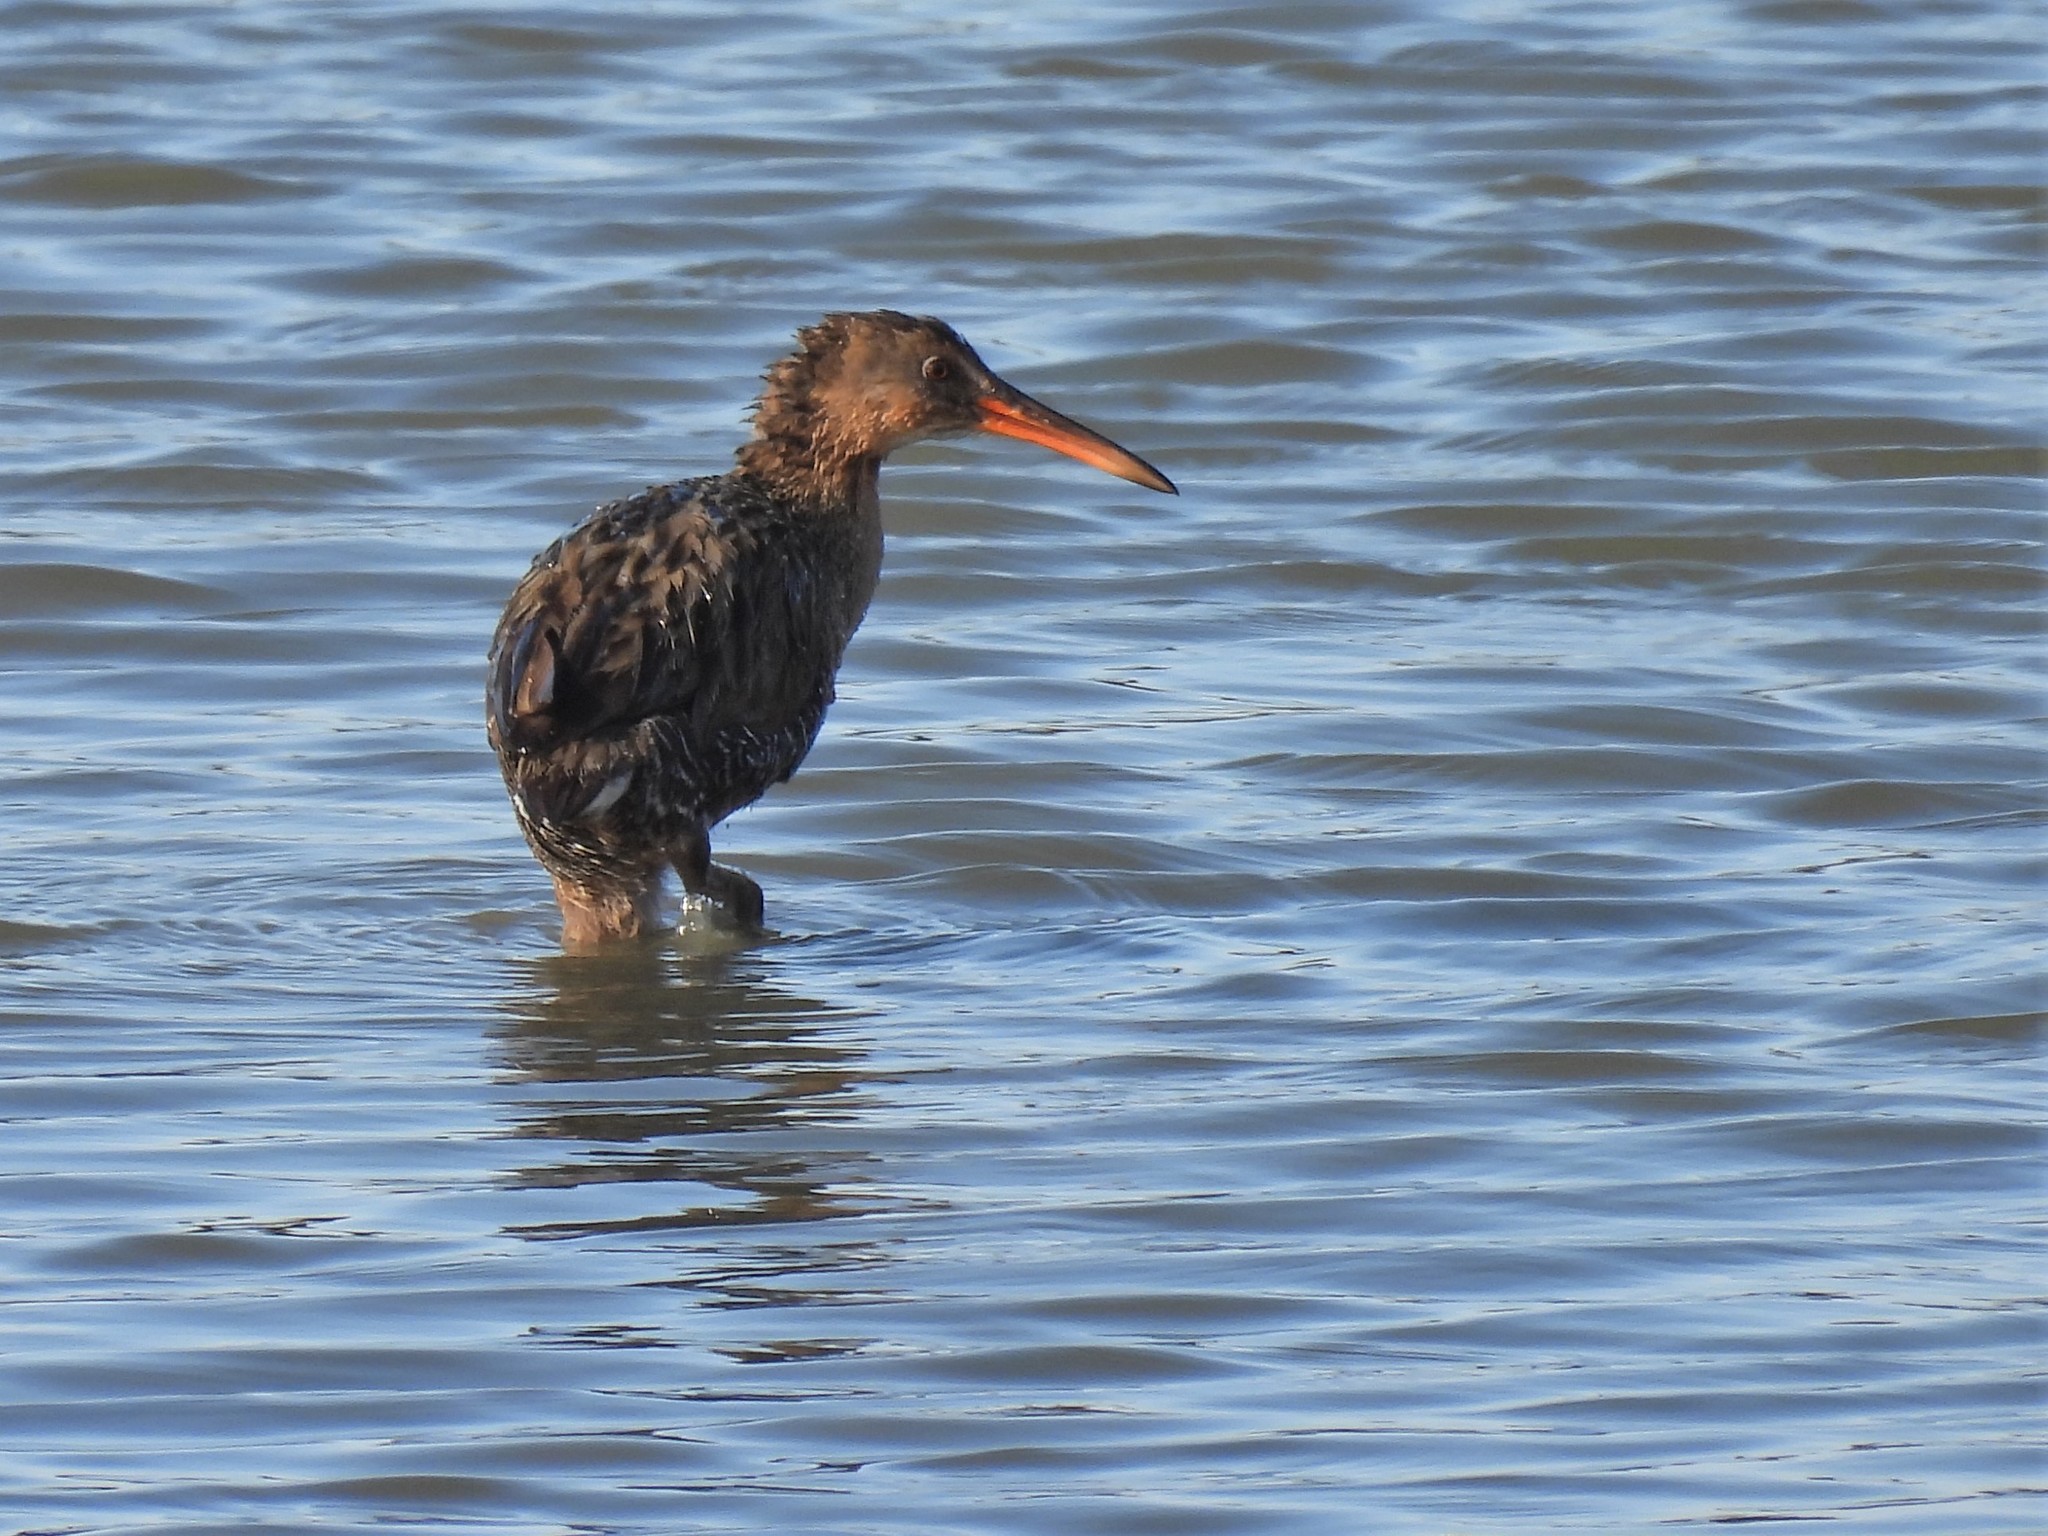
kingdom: Animalia
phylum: Chordata
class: Aves
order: Gruiformes
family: Rallidae
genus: Rallus
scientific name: Rallus obsoletus
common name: Ridgway's rail
